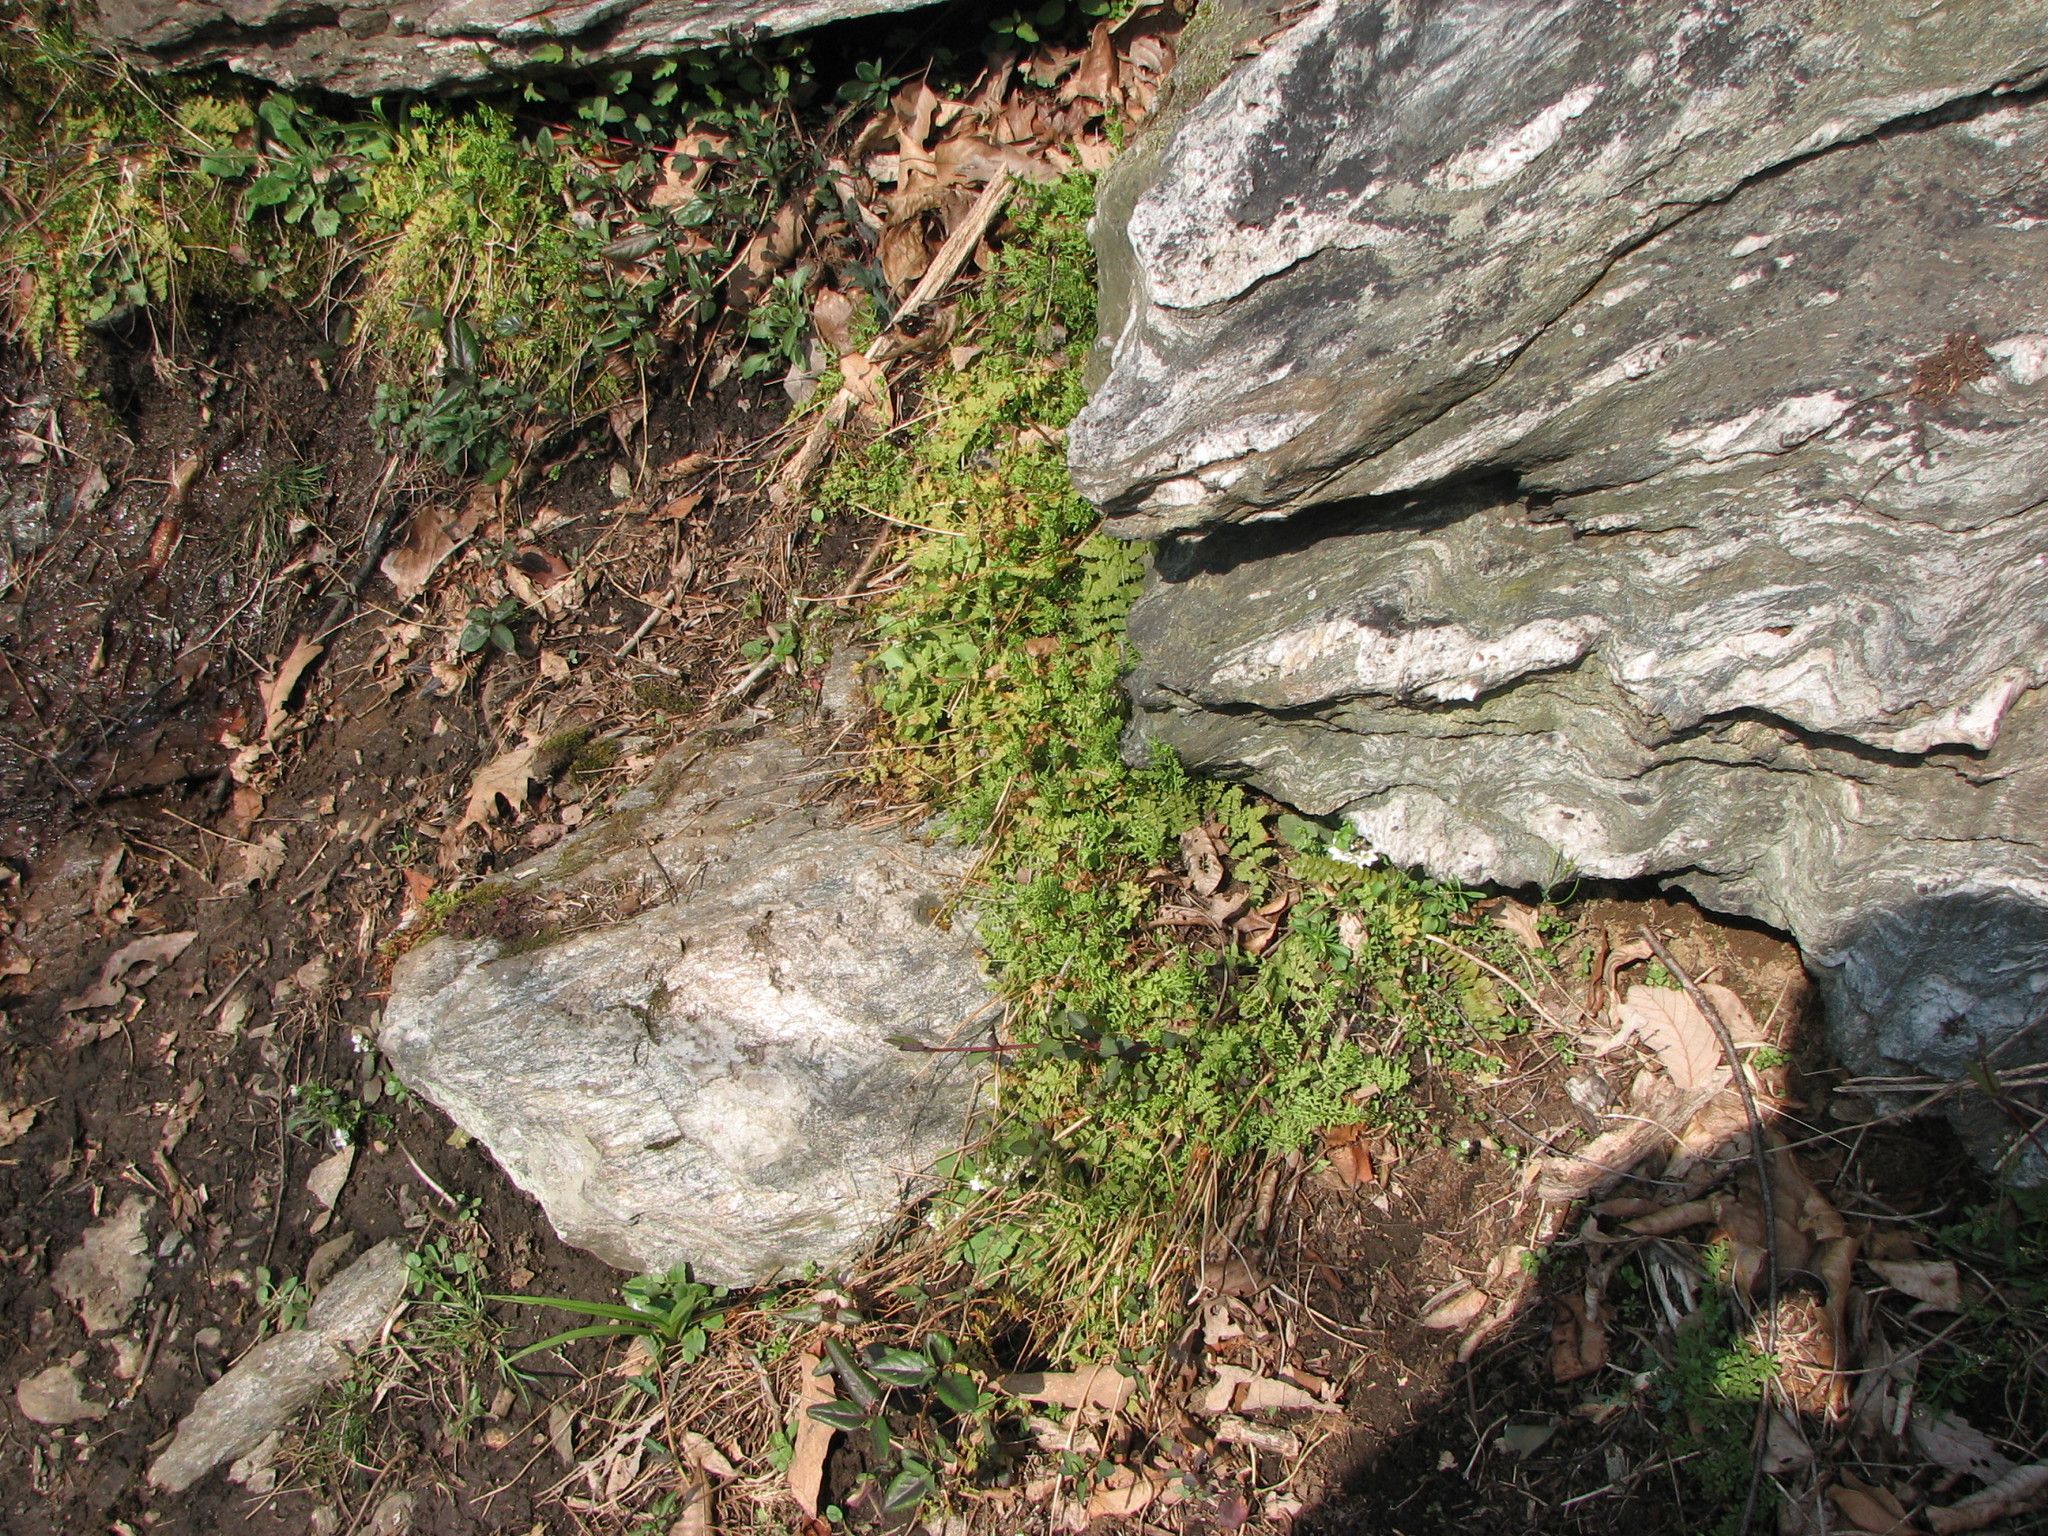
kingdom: Plantae
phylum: Tracheophyta
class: Polypodiopsida
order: Polypodiales
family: Woodsiaceae
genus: Physematium
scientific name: Physematium obtusum
